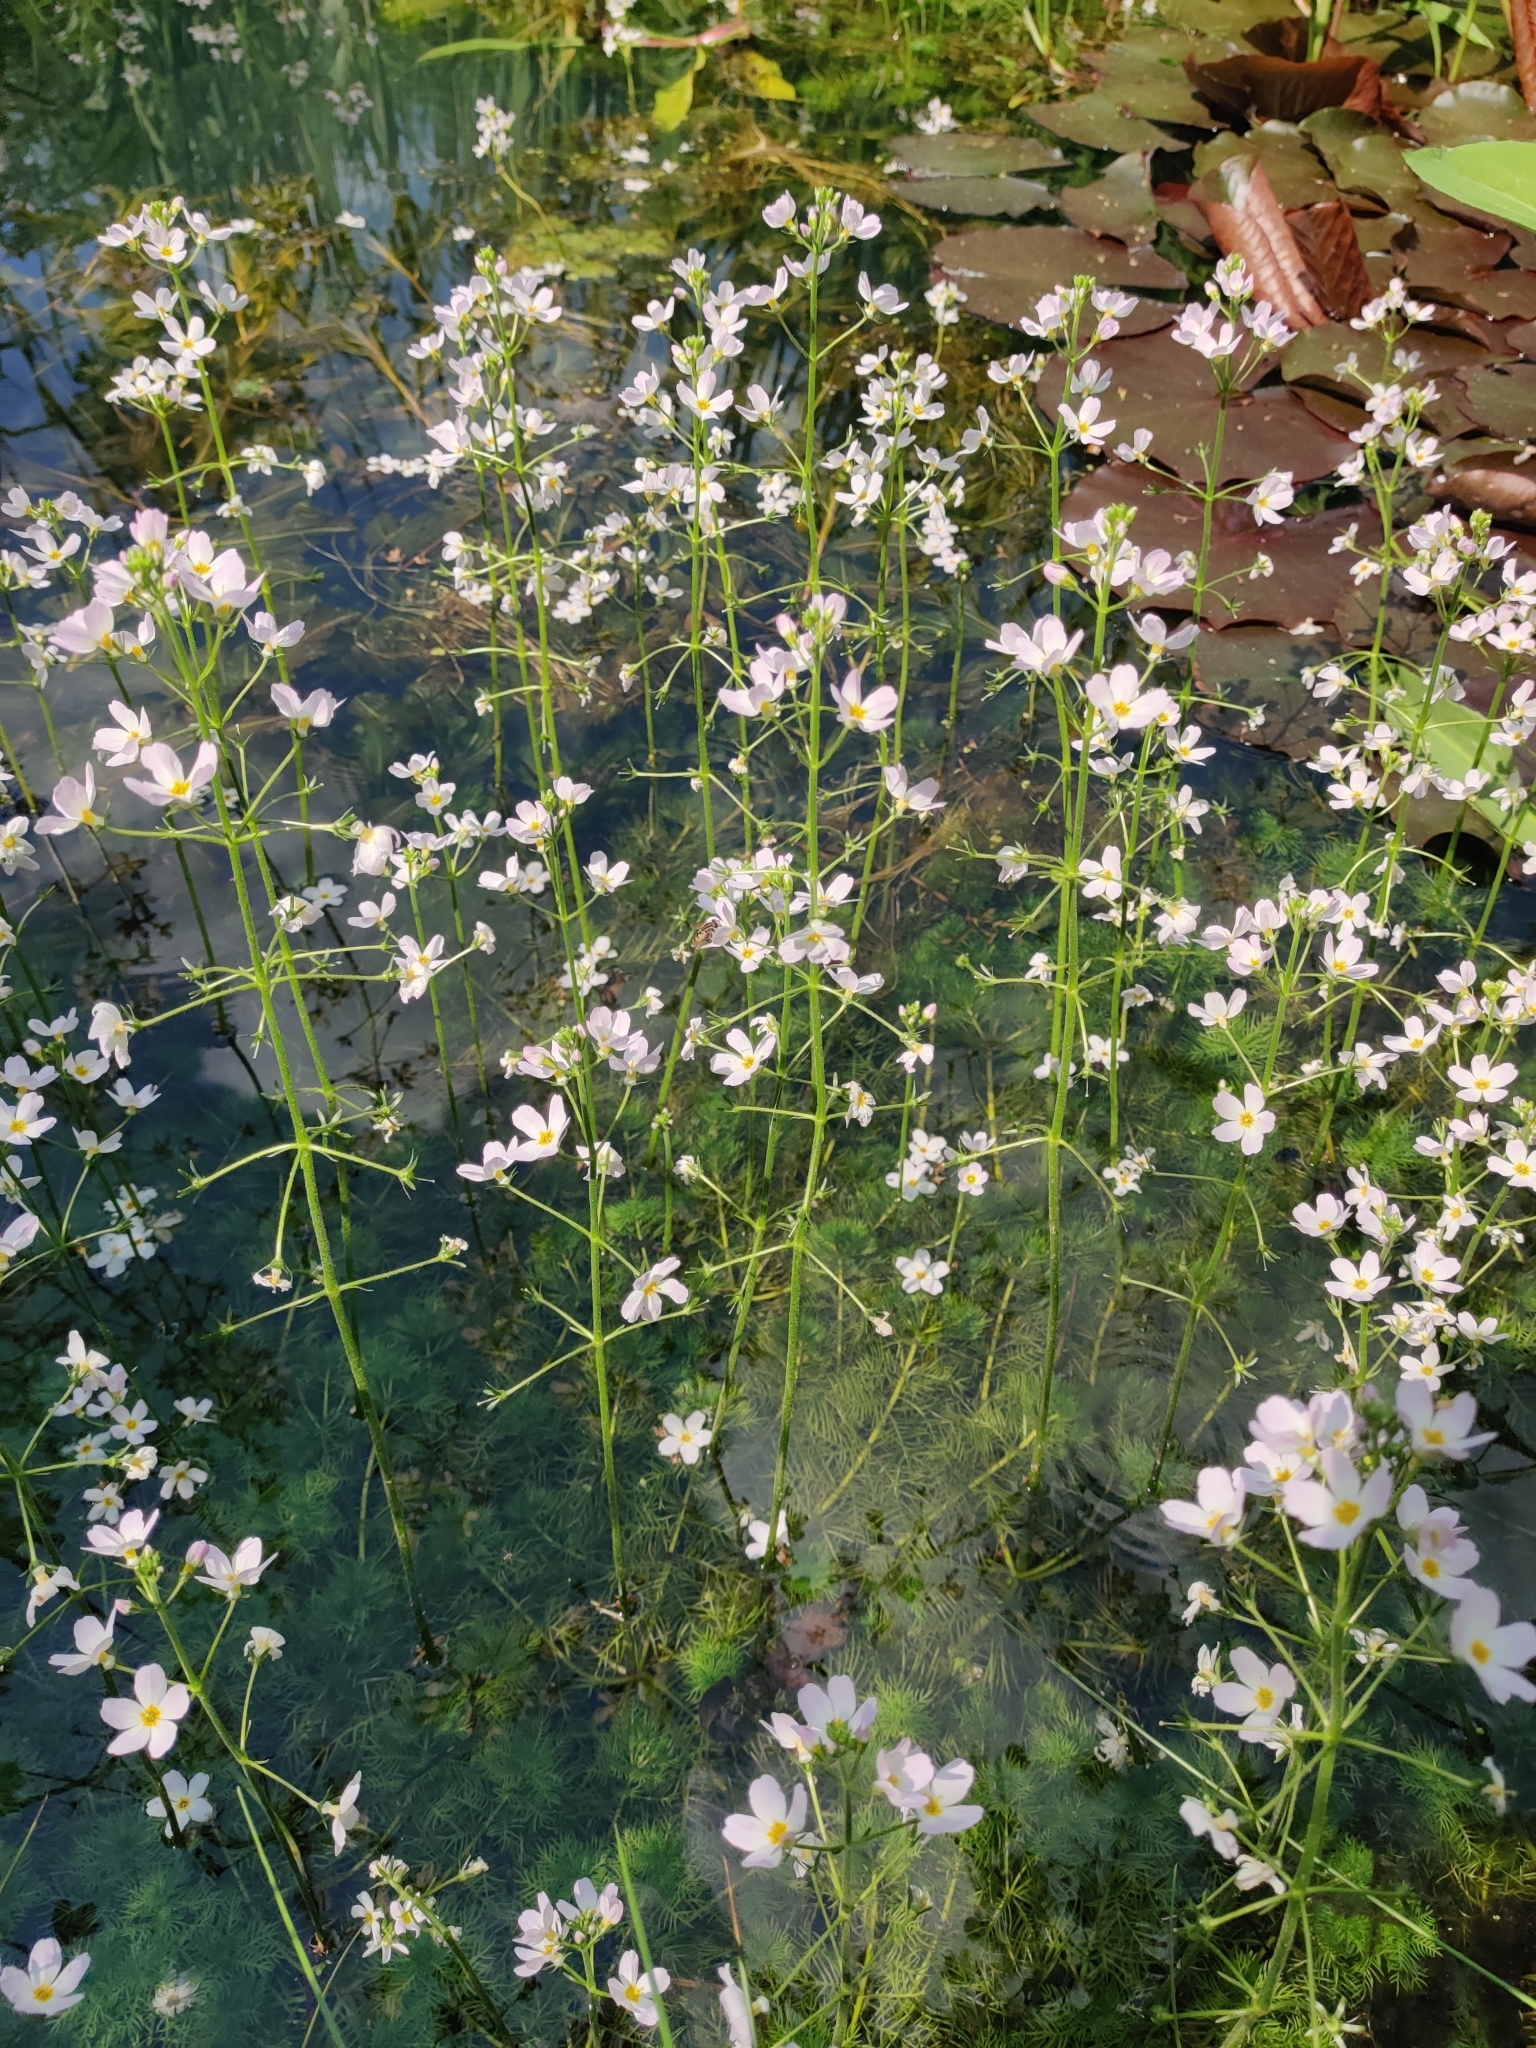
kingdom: Plantae
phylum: Tracheophyta
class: Magnoliopsida
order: Ericales
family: Primulaceae
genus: Hottonia
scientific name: Hottonia palustris
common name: Water-violet
